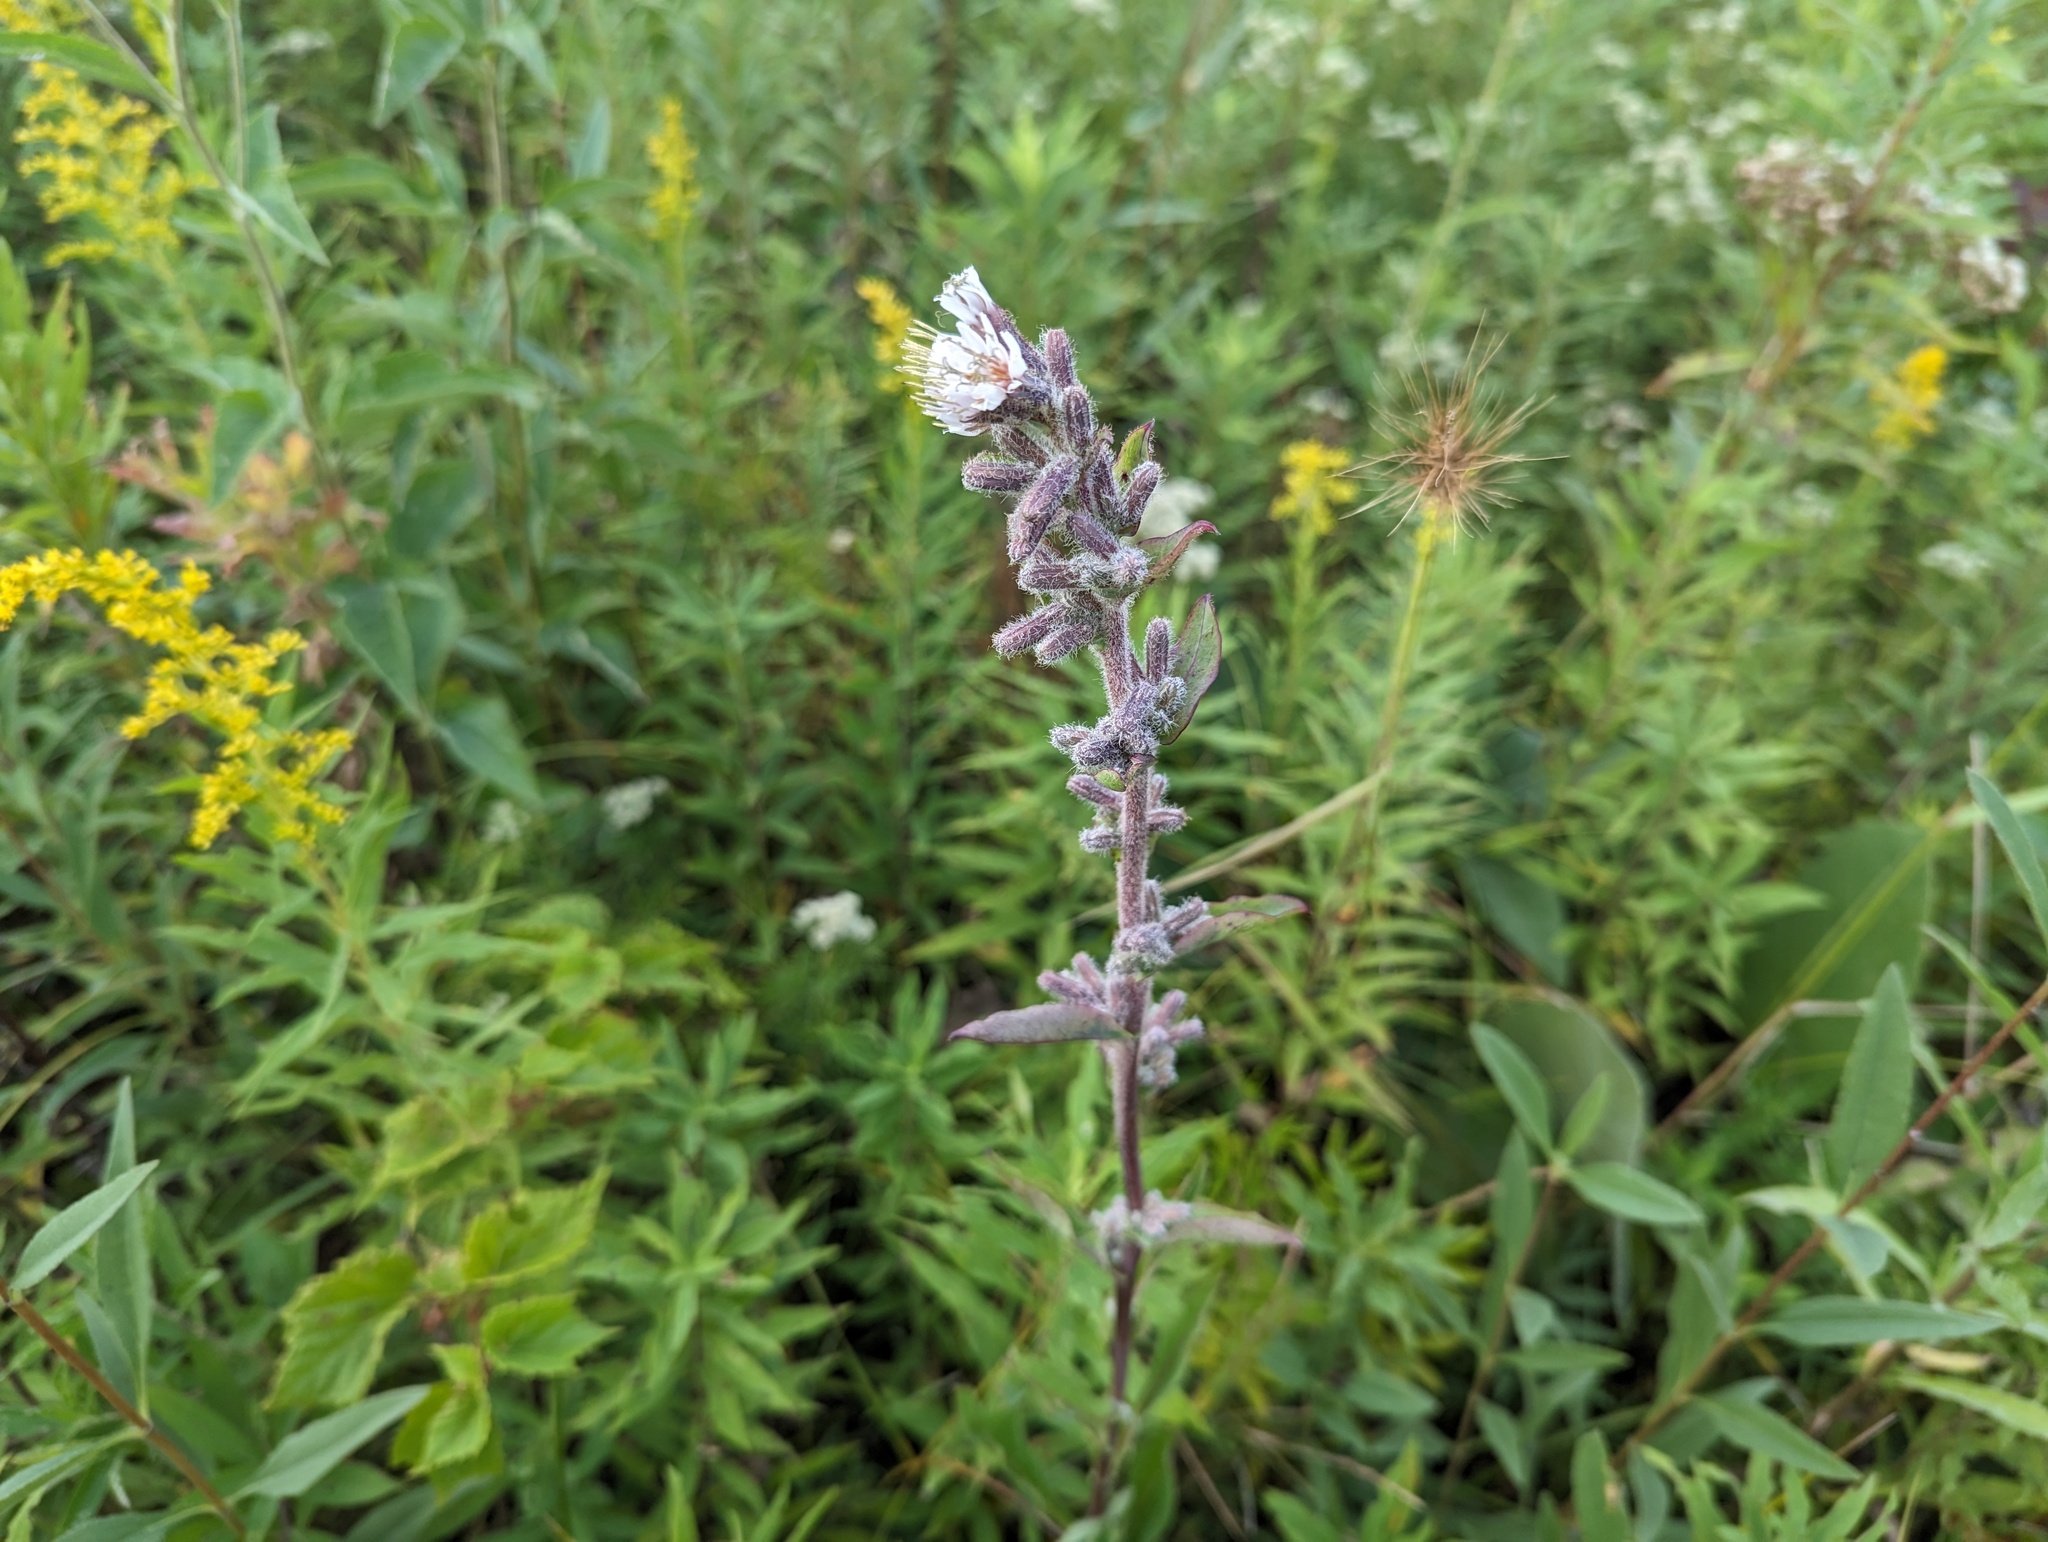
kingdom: Plantae
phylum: Tracheophyta
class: Magnoliopsida
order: Asterales
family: Asteraceae
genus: Nabalus
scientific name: Nabalus racemosus
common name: Glaucous white lettuce
